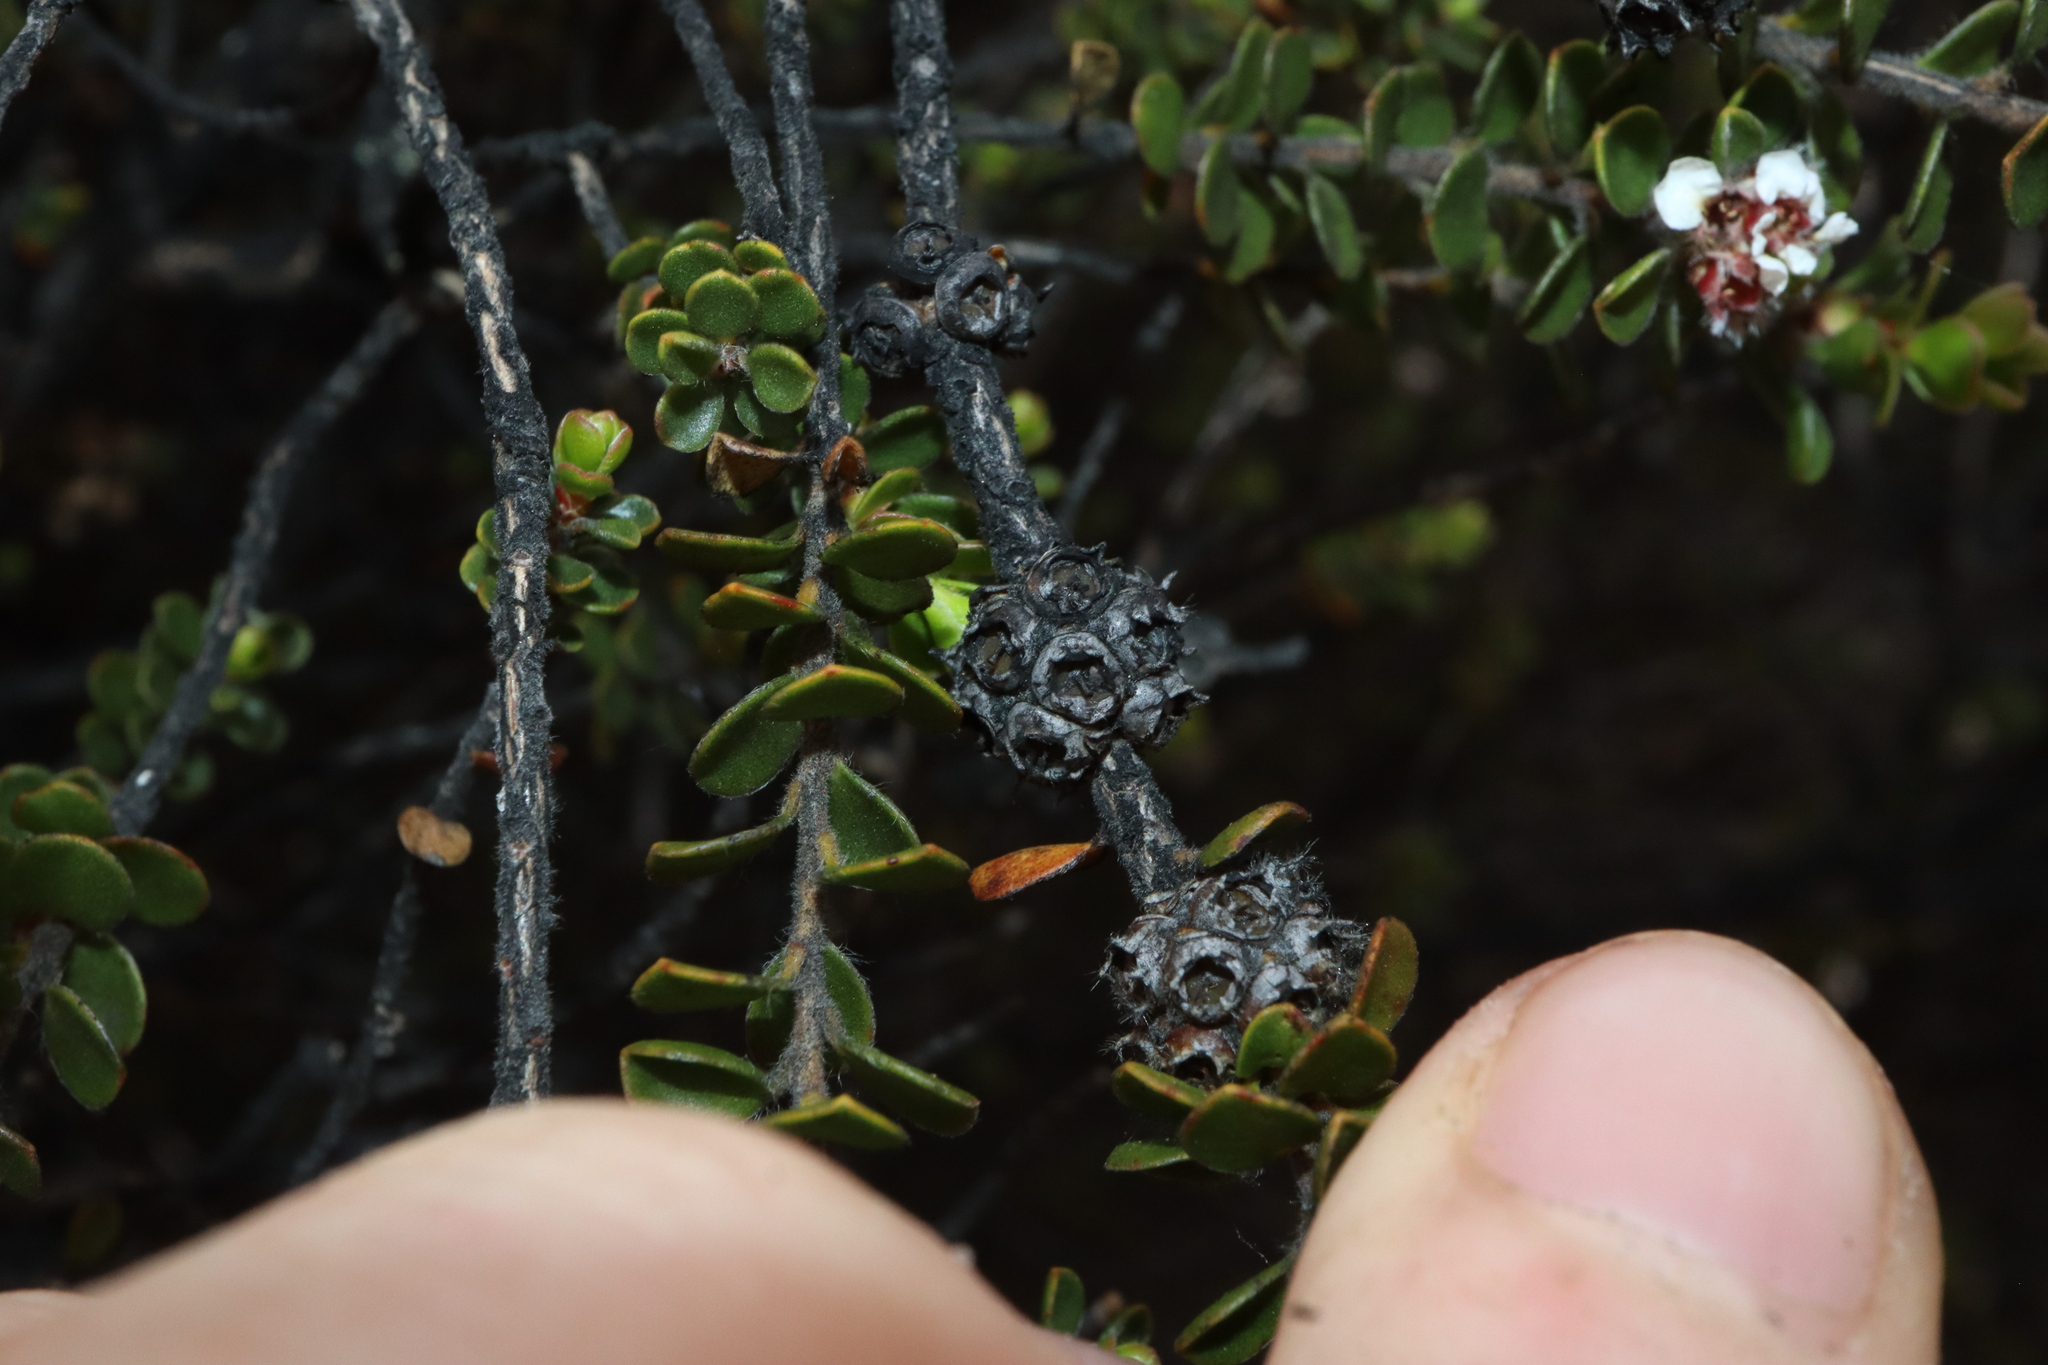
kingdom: Plantae
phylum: Tracheophyta
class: Magnoliopsida
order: Myrtales
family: Myrtaceae
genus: Taxandria
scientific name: Taxandria spathulata
